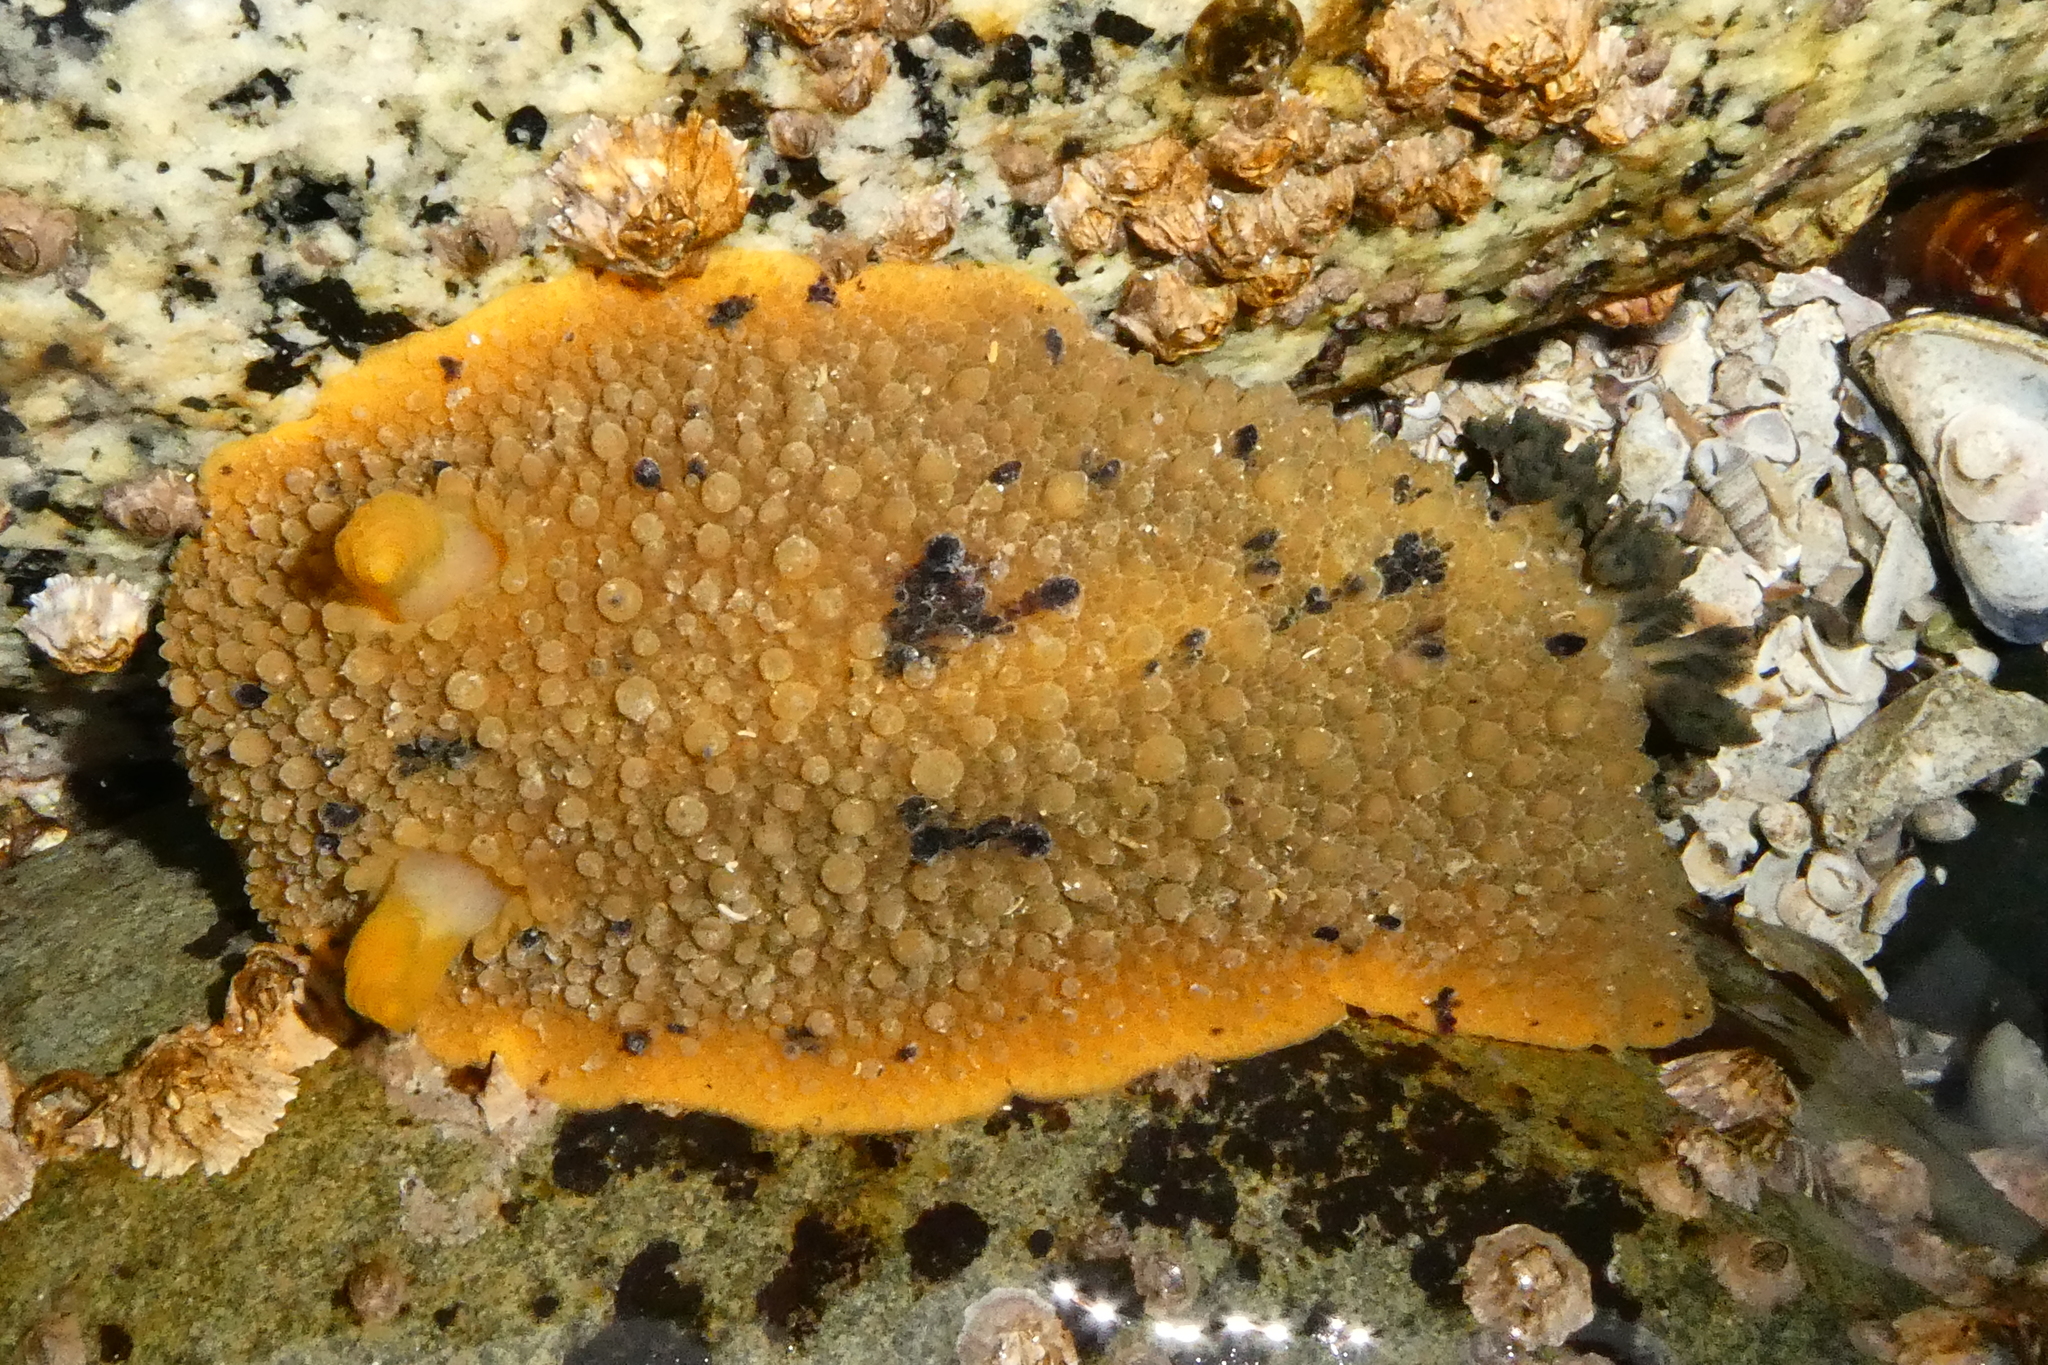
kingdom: Animalia
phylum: Mollusca
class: Gastropoda
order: Nudibranchia
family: Dorididae
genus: Doris
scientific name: Doris montereyensis
